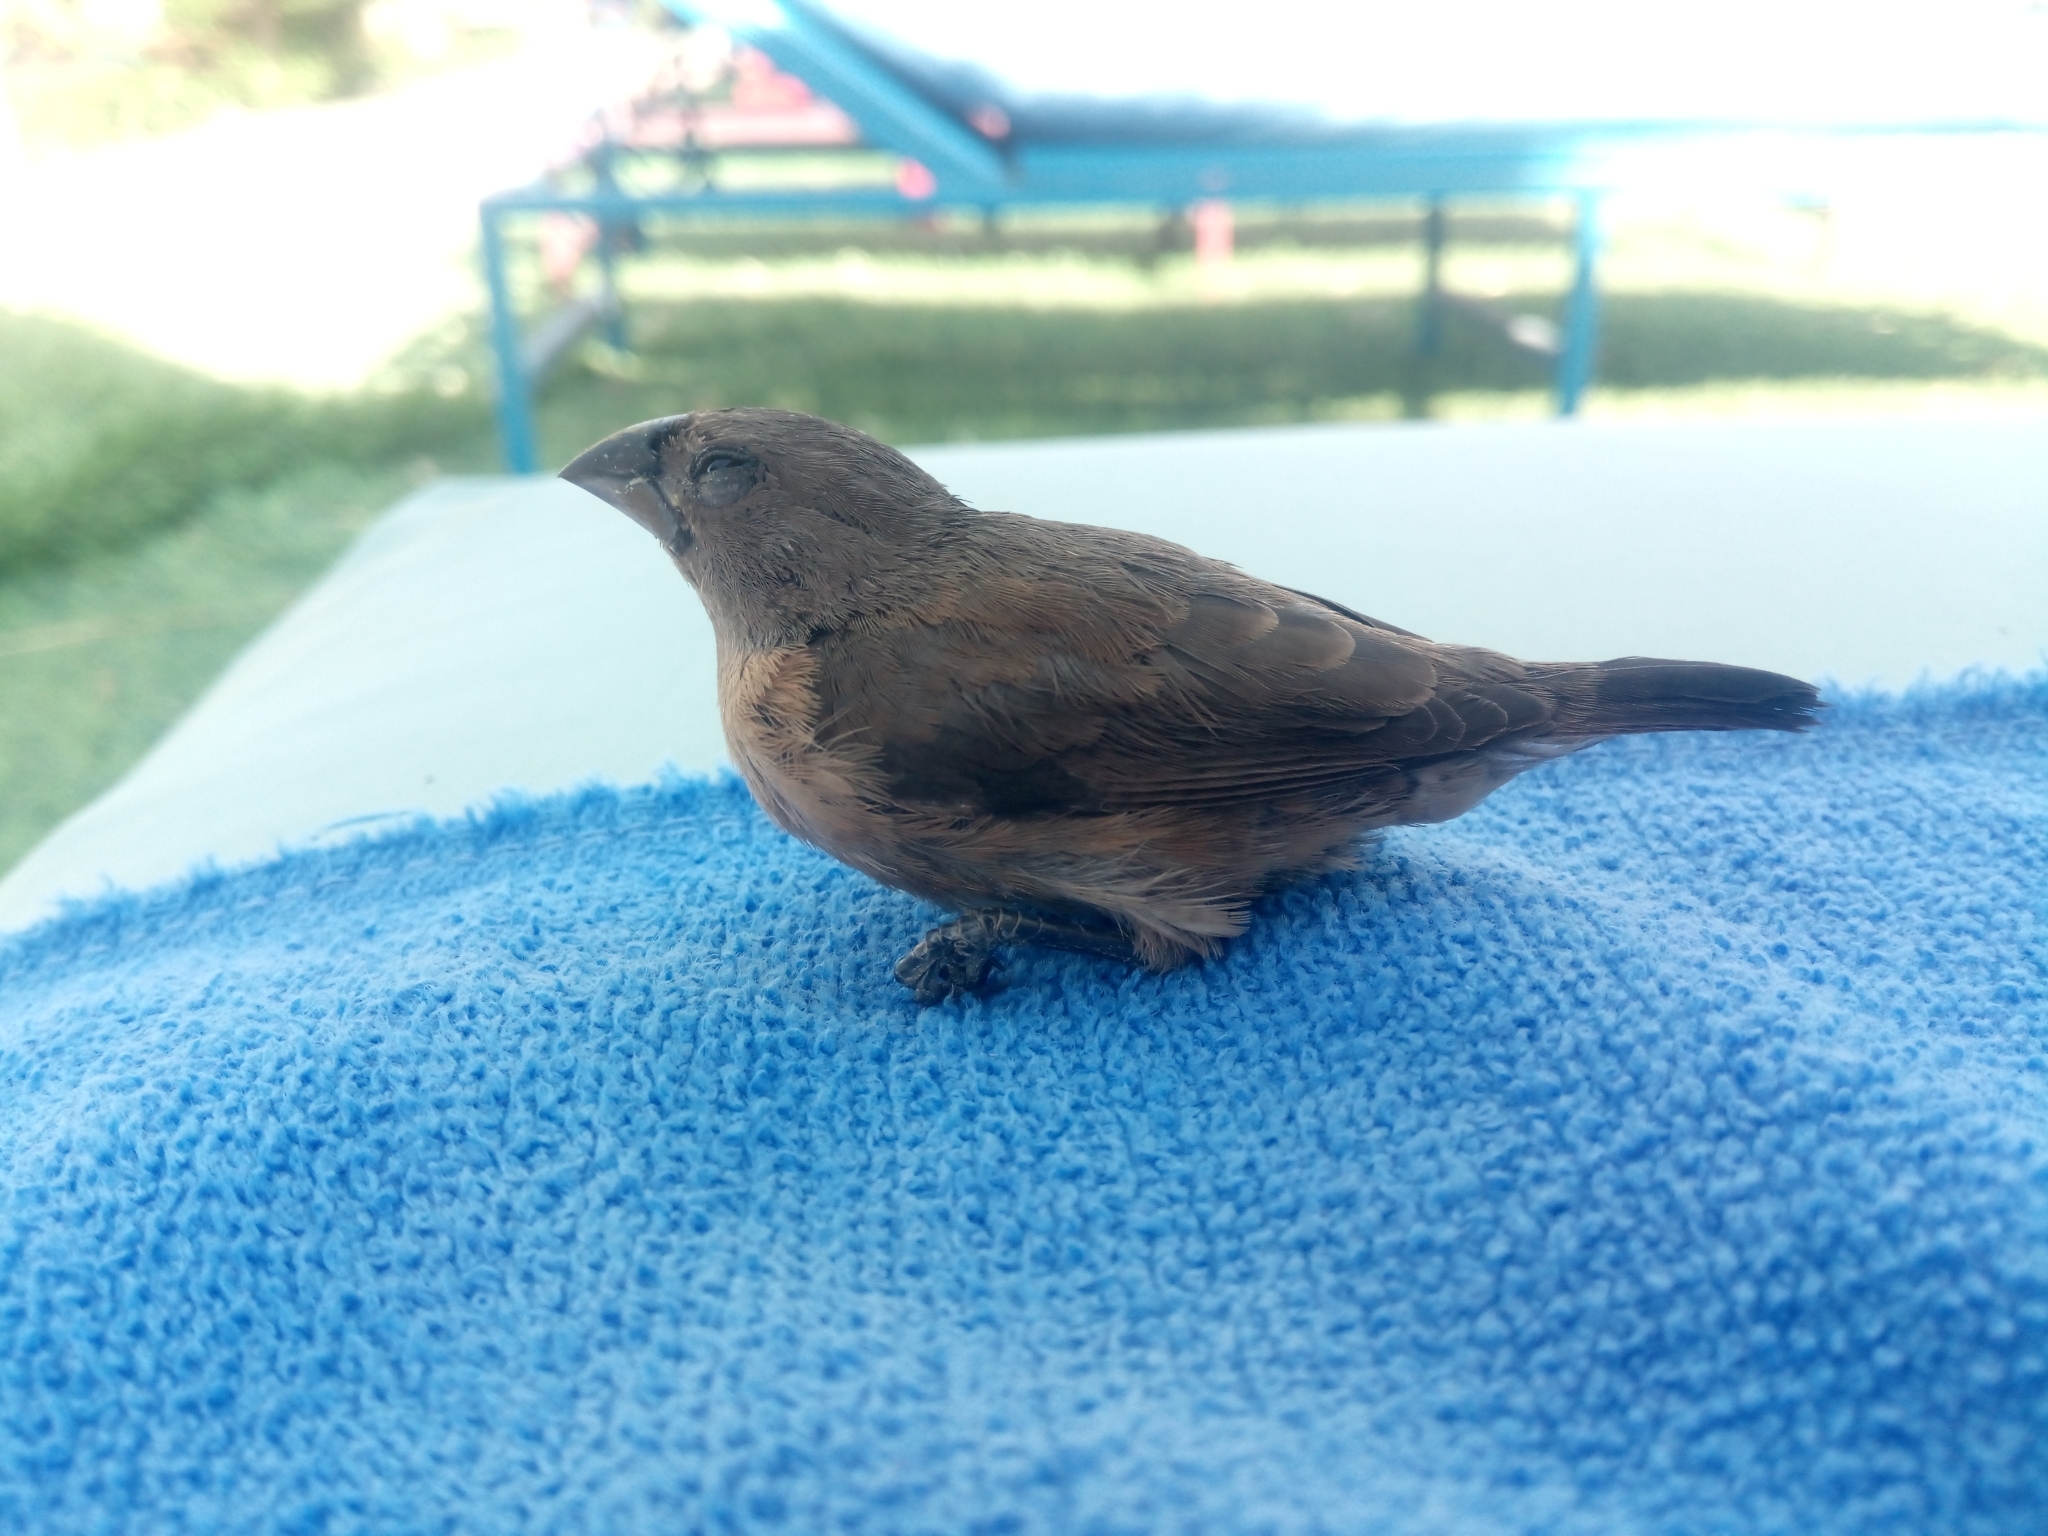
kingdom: Animalia
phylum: Chordata
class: Aves
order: Passeriformes
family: Estrildidae
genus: Lonchura
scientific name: Lonchura cucullata
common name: Bronze mannikin
